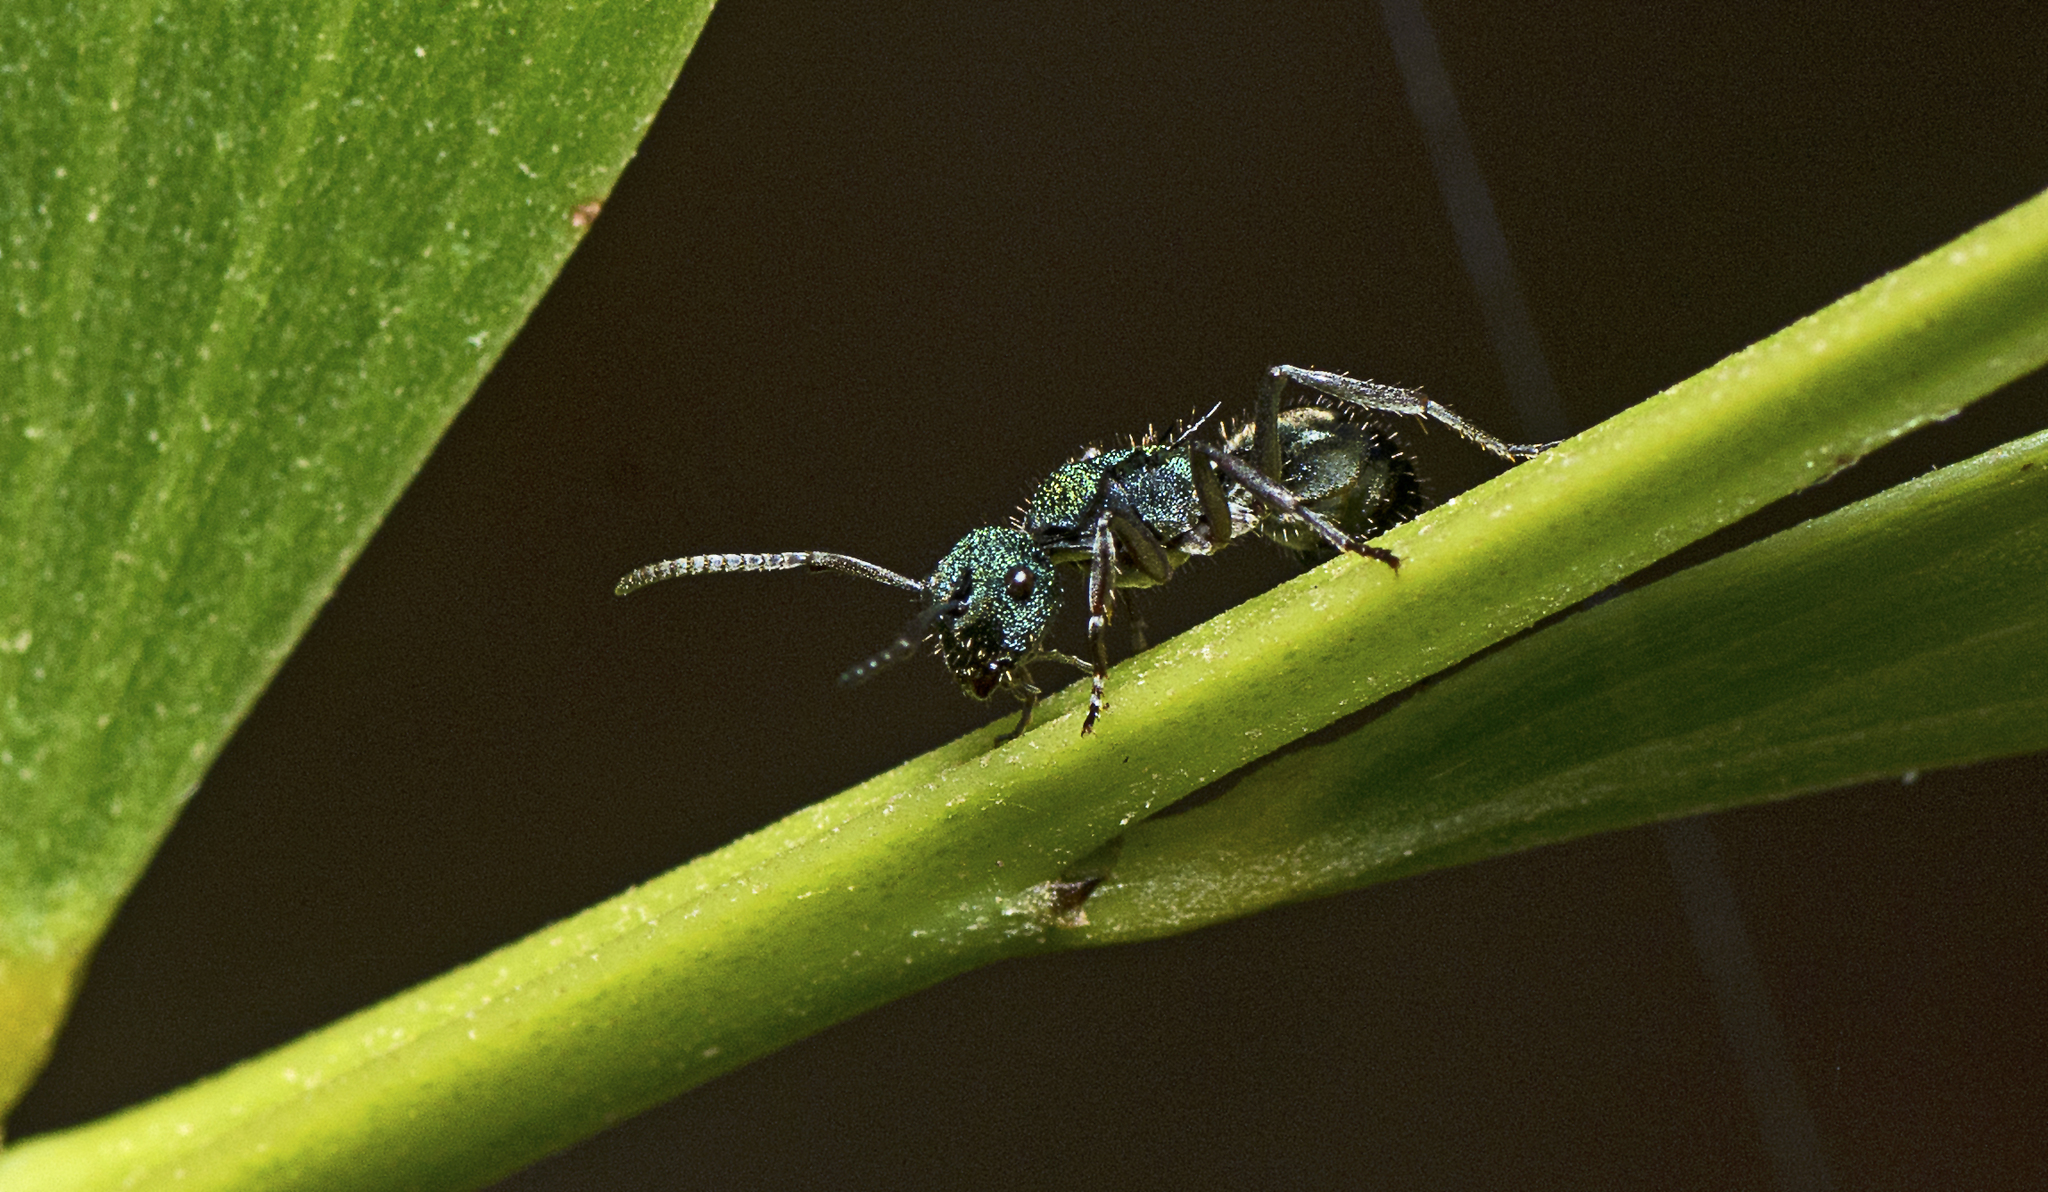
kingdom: Animalia
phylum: Arthropoda
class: Insecta
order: Hymenoptera
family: Formicidae
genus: Polyrhachis
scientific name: Polyrhachis hookeri
